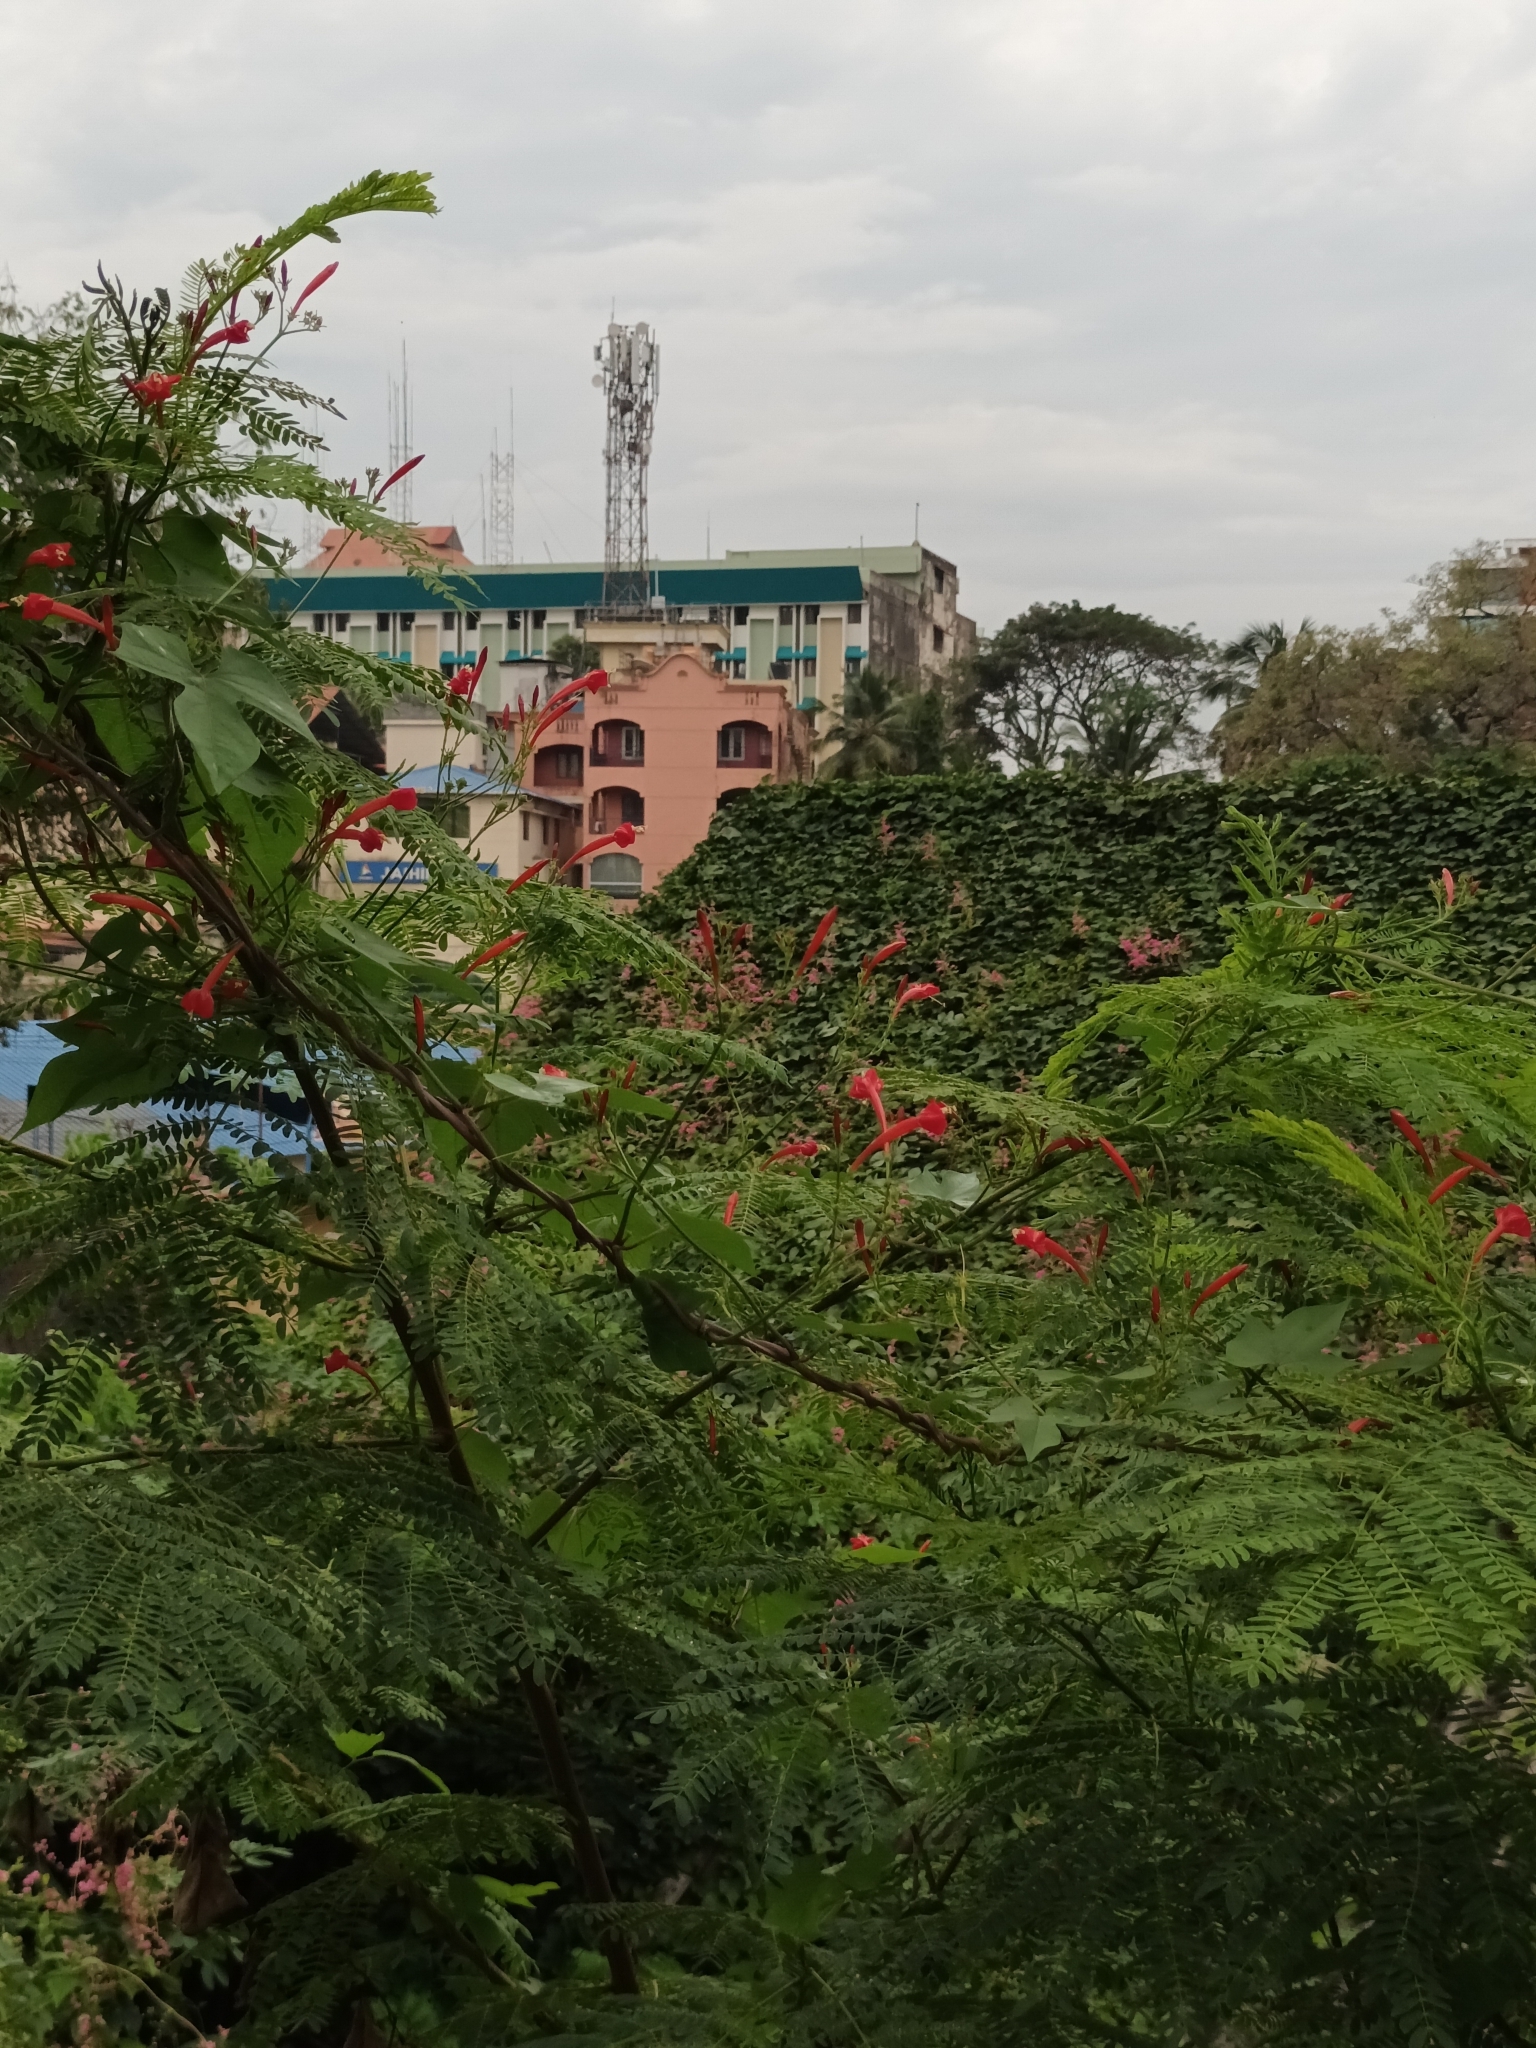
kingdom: Plantae
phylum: Tracheophyta
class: Magnoliopsida
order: Solanales
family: Convolvulaceae
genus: Ipomoea
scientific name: Ipomoea hederifolia
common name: Ivy-leaf morning-glory
